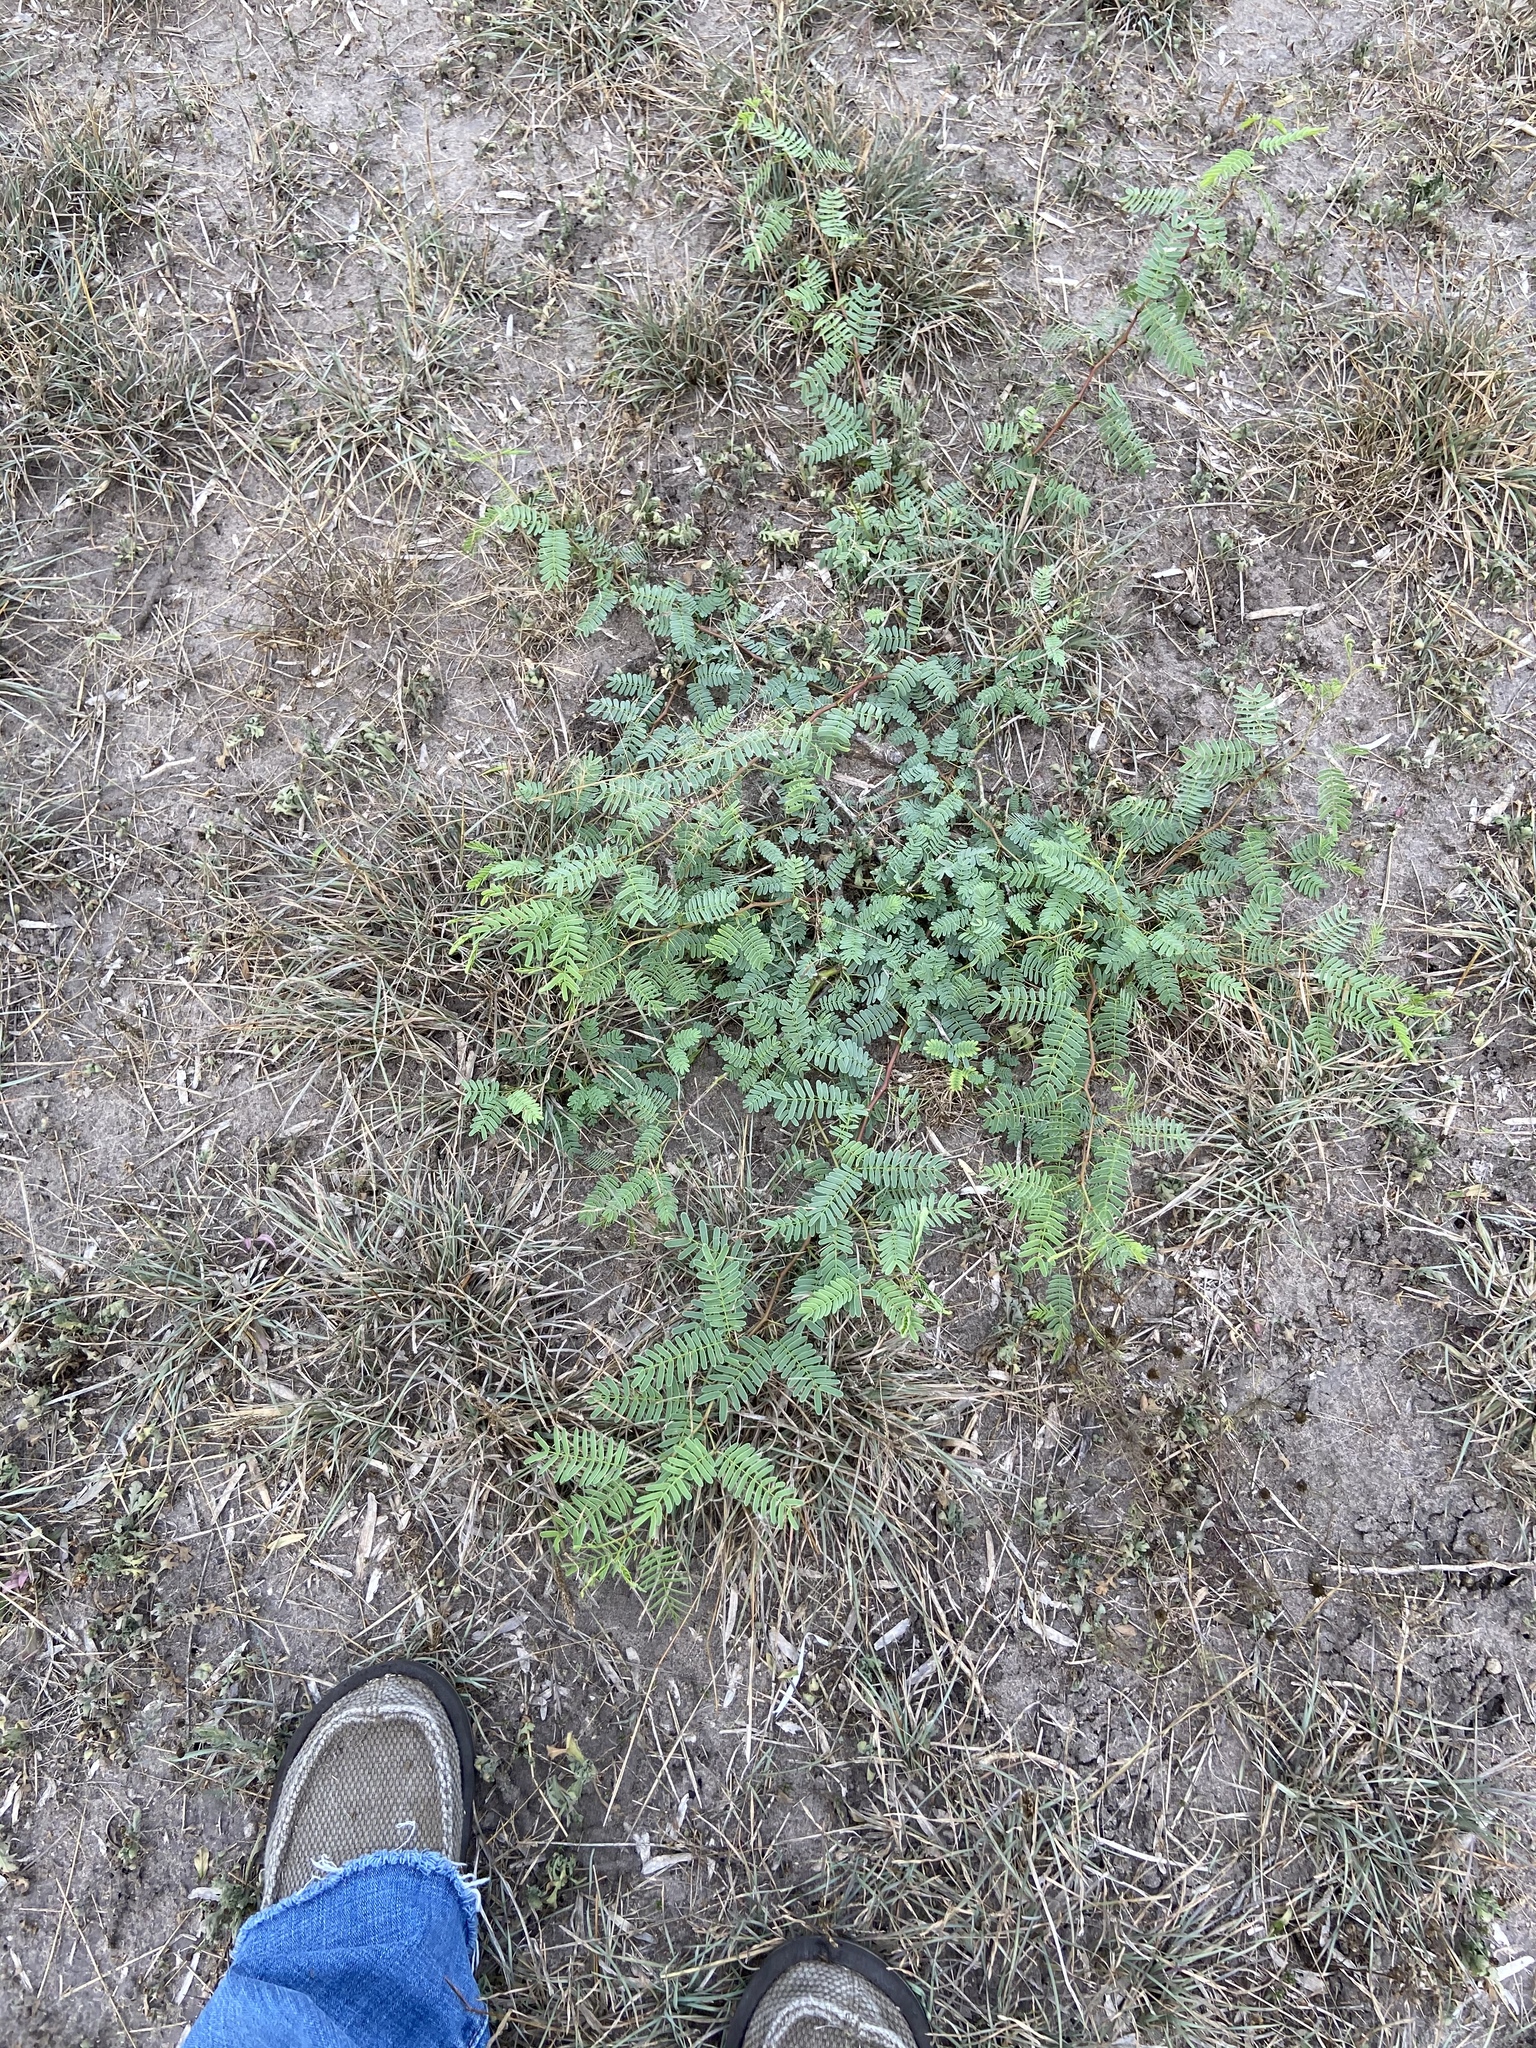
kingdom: Plantae
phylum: Tracheophyta
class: Magnoliopsida
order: Fabales
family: Fabaceae
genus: Prosopis
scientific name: Prosopis glandulosa
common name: Honey mesquite
